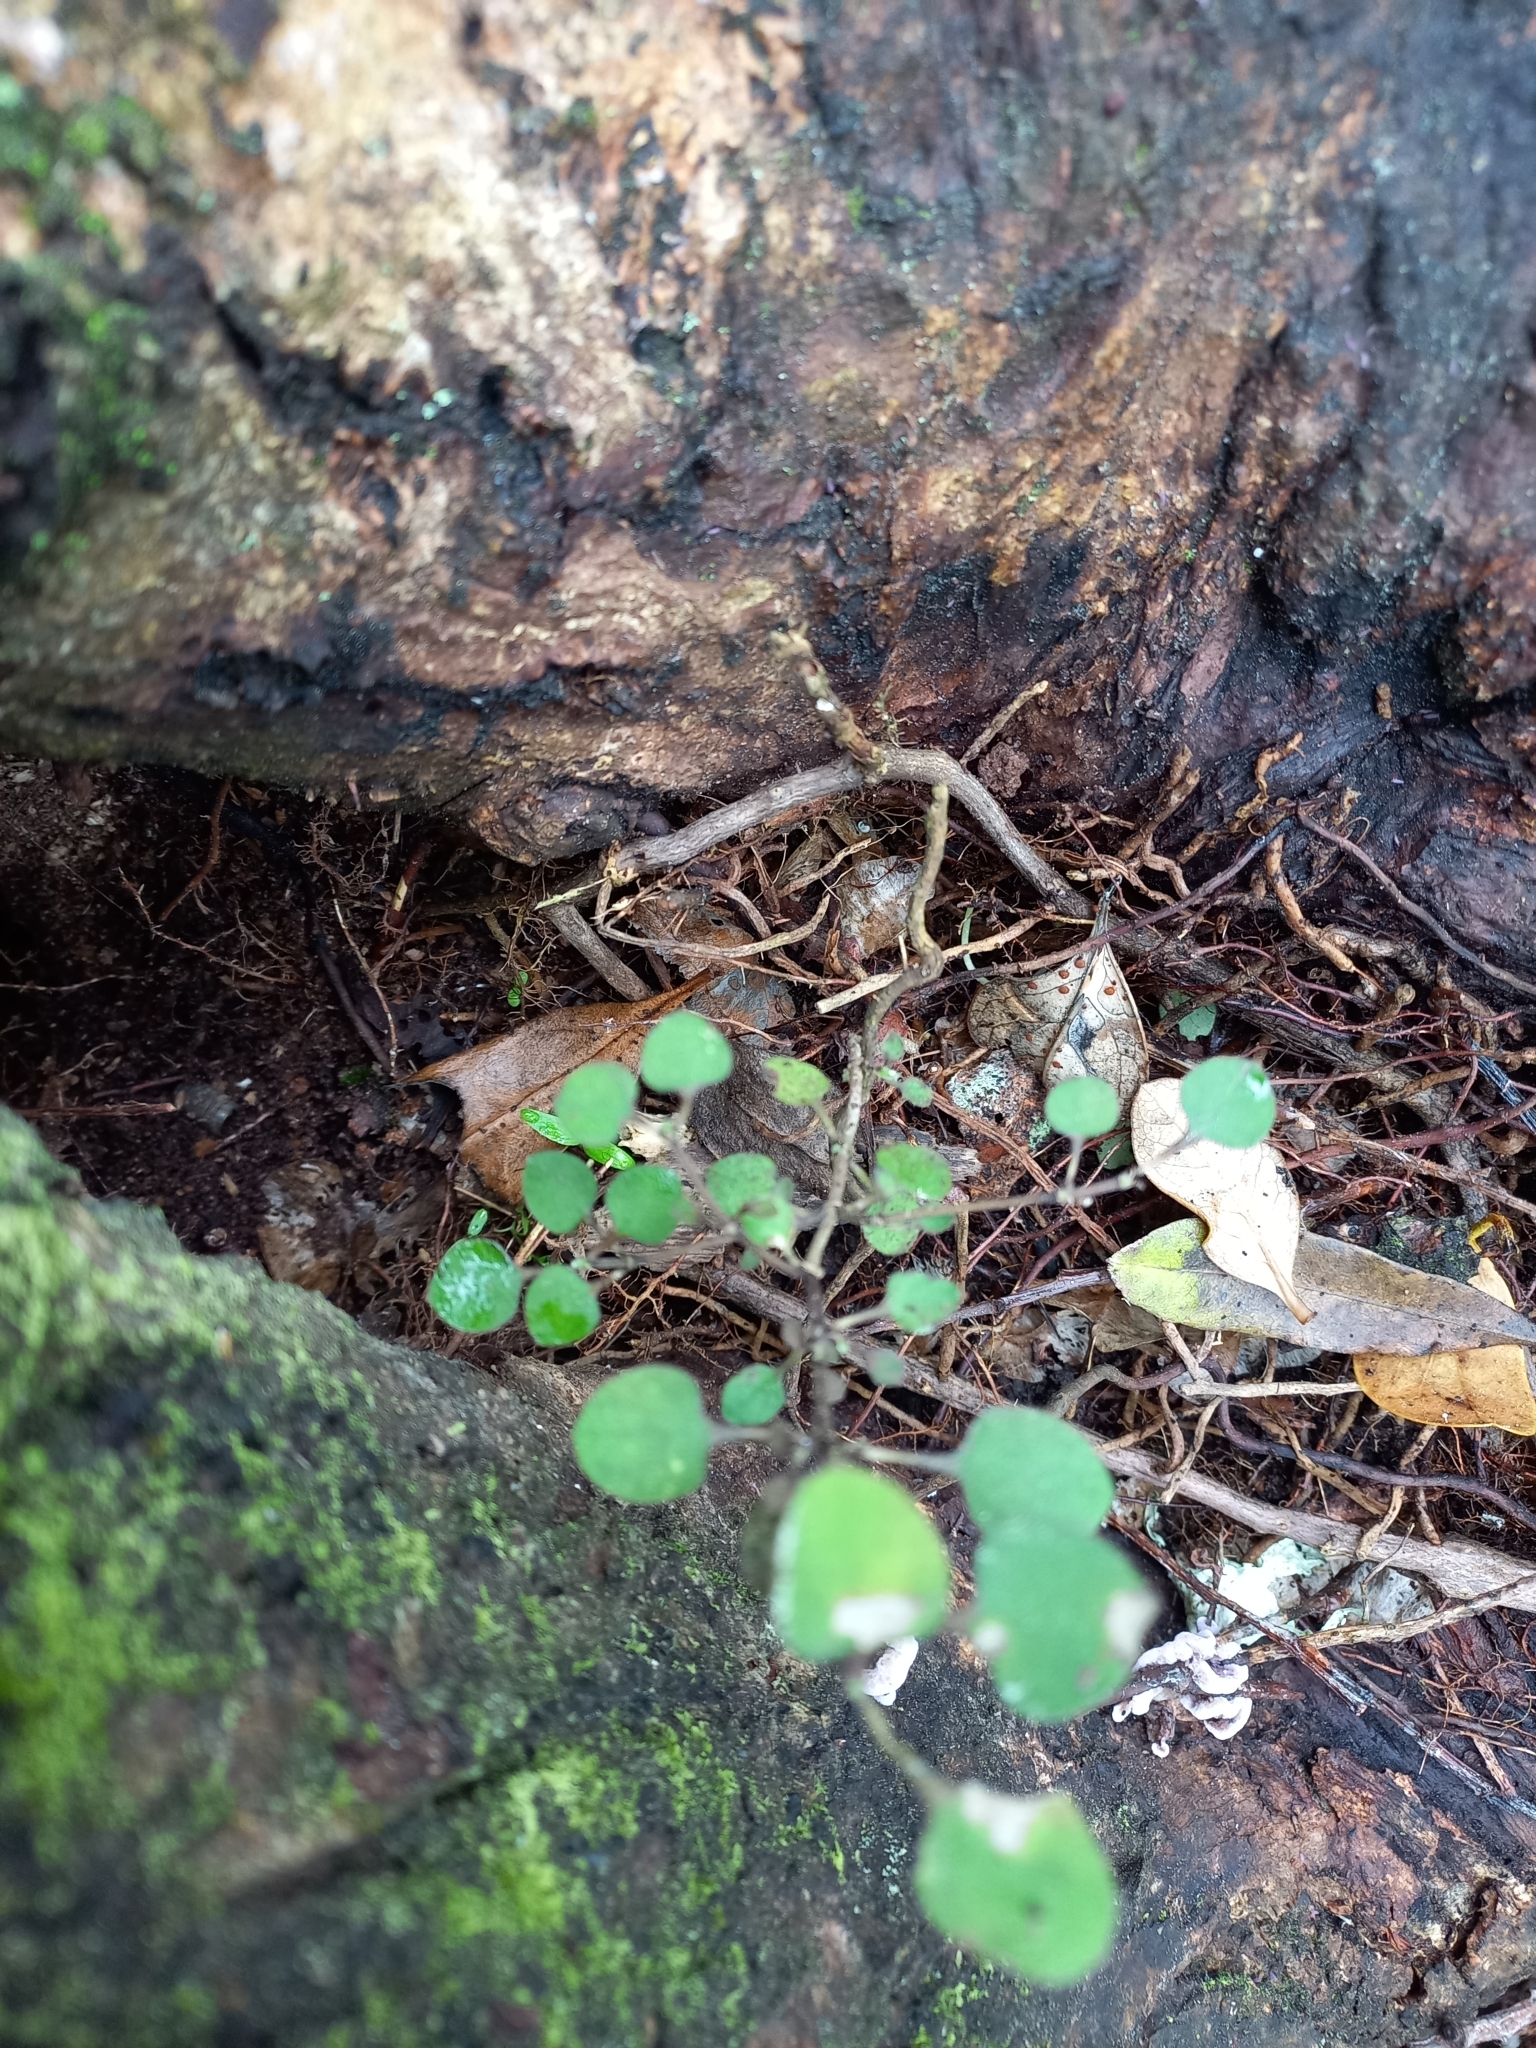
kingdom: Plantae
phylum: Tracheophyta
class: Magnoliopsida
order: Gentianales
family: Rubiaceae
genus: Coprosma
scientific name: Coprosma rotundifolia
